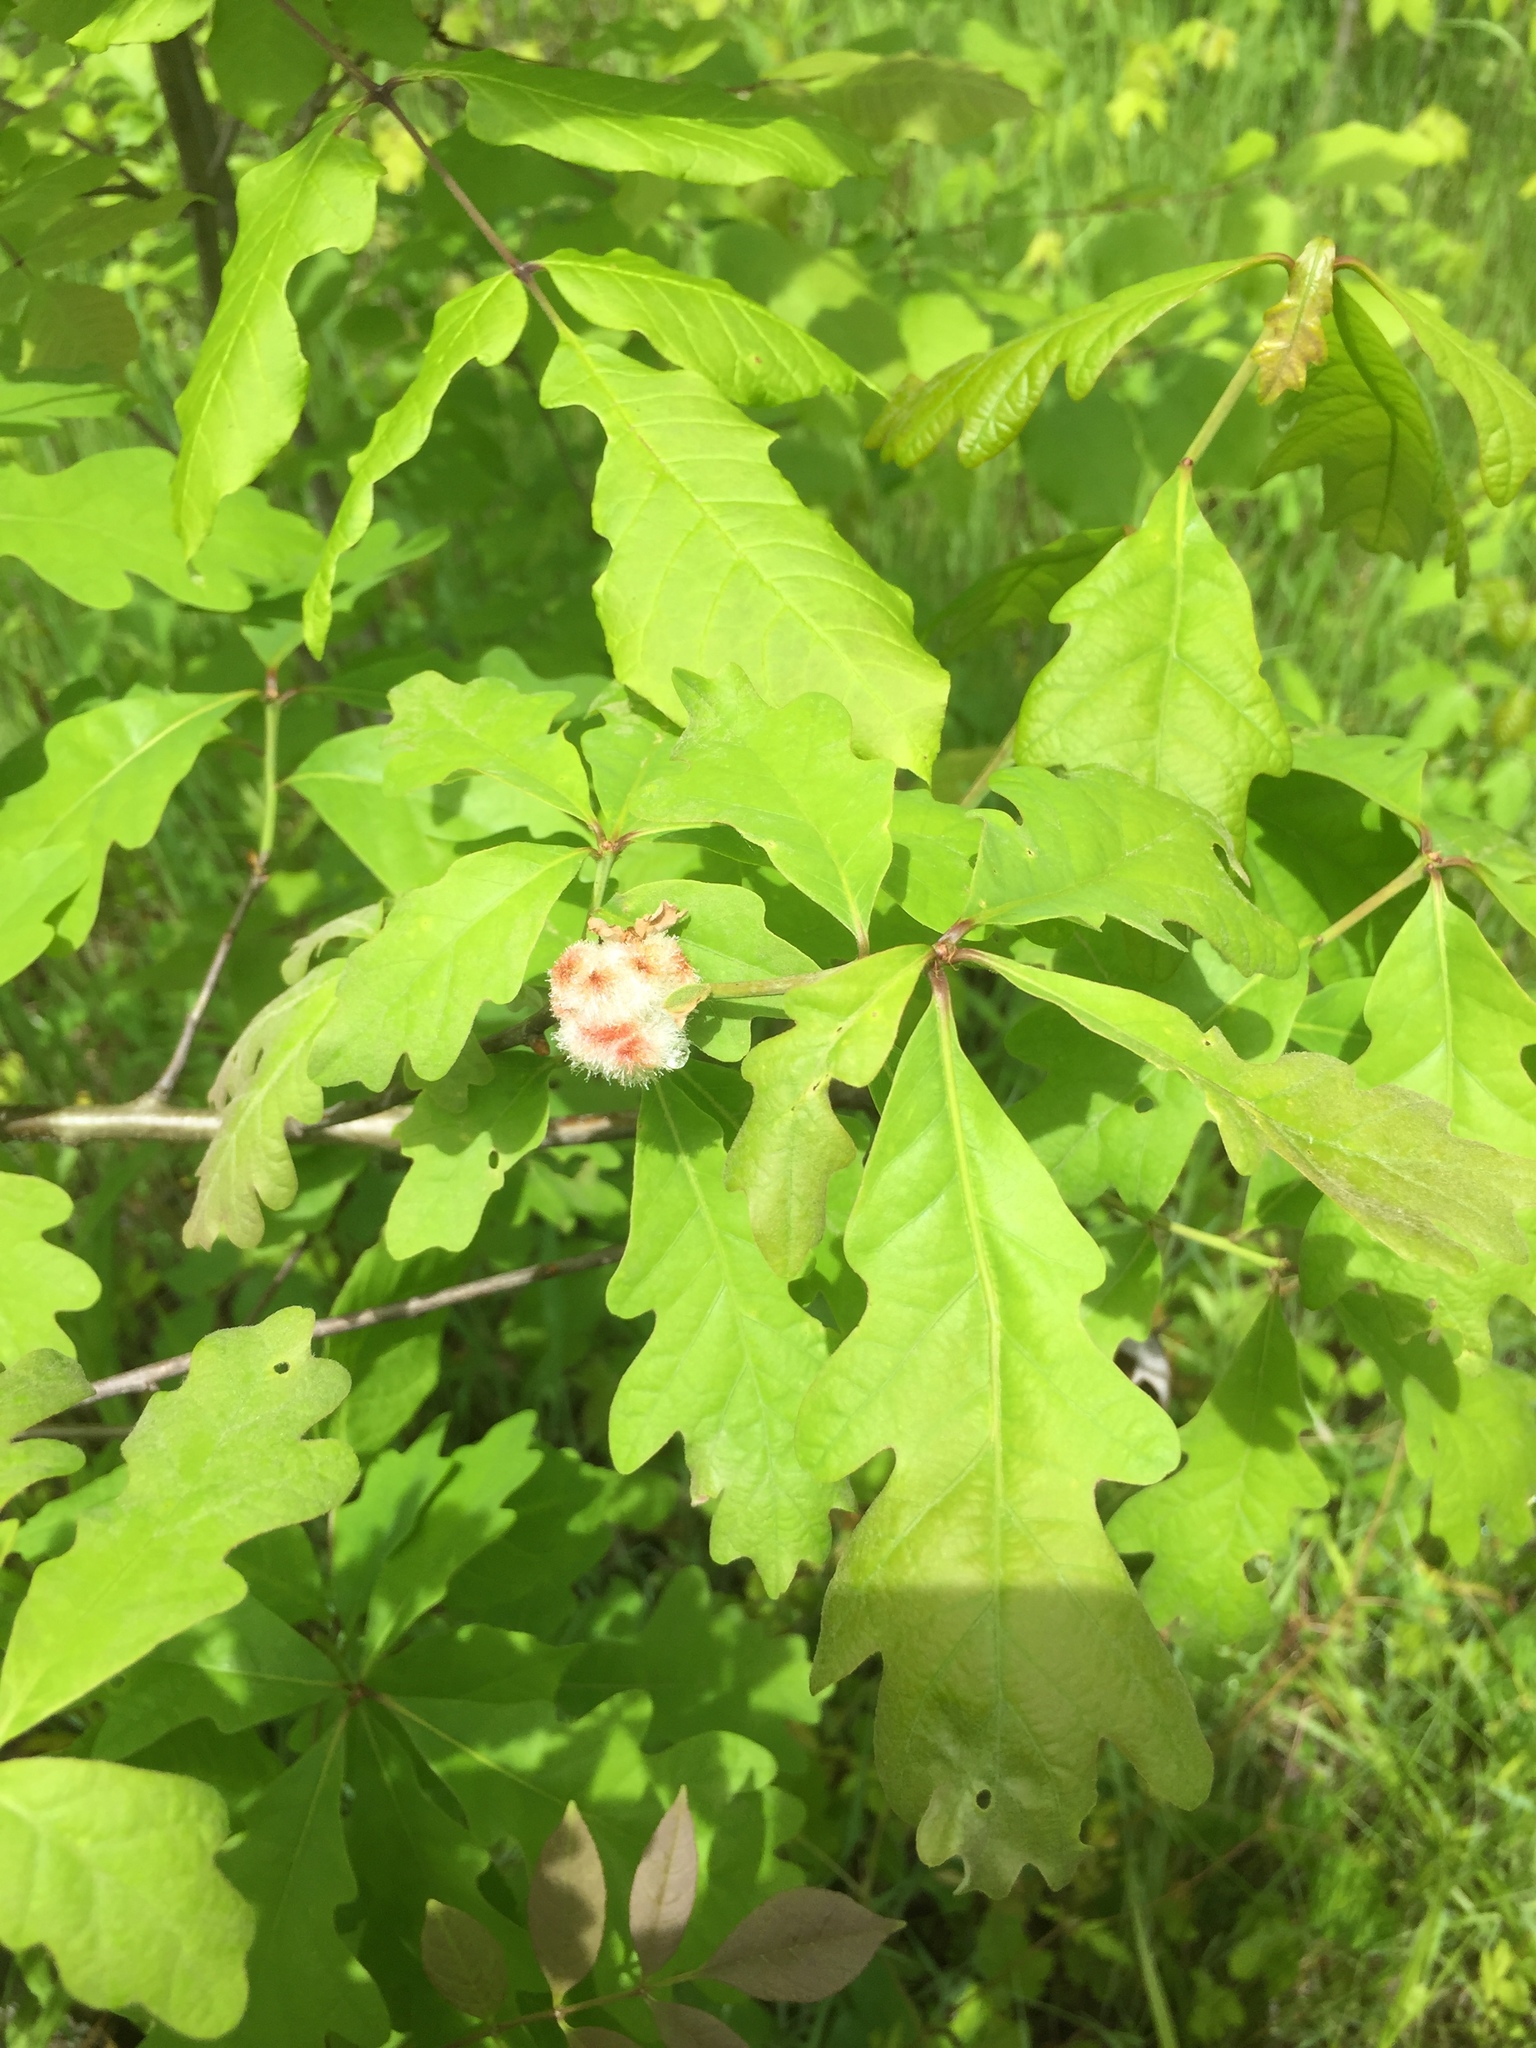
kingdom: Animalia
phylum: Arthropoda
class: Insecta
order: Hymenoptera
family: Cynipidae
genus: Callirhytis
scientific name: Callirhytis
